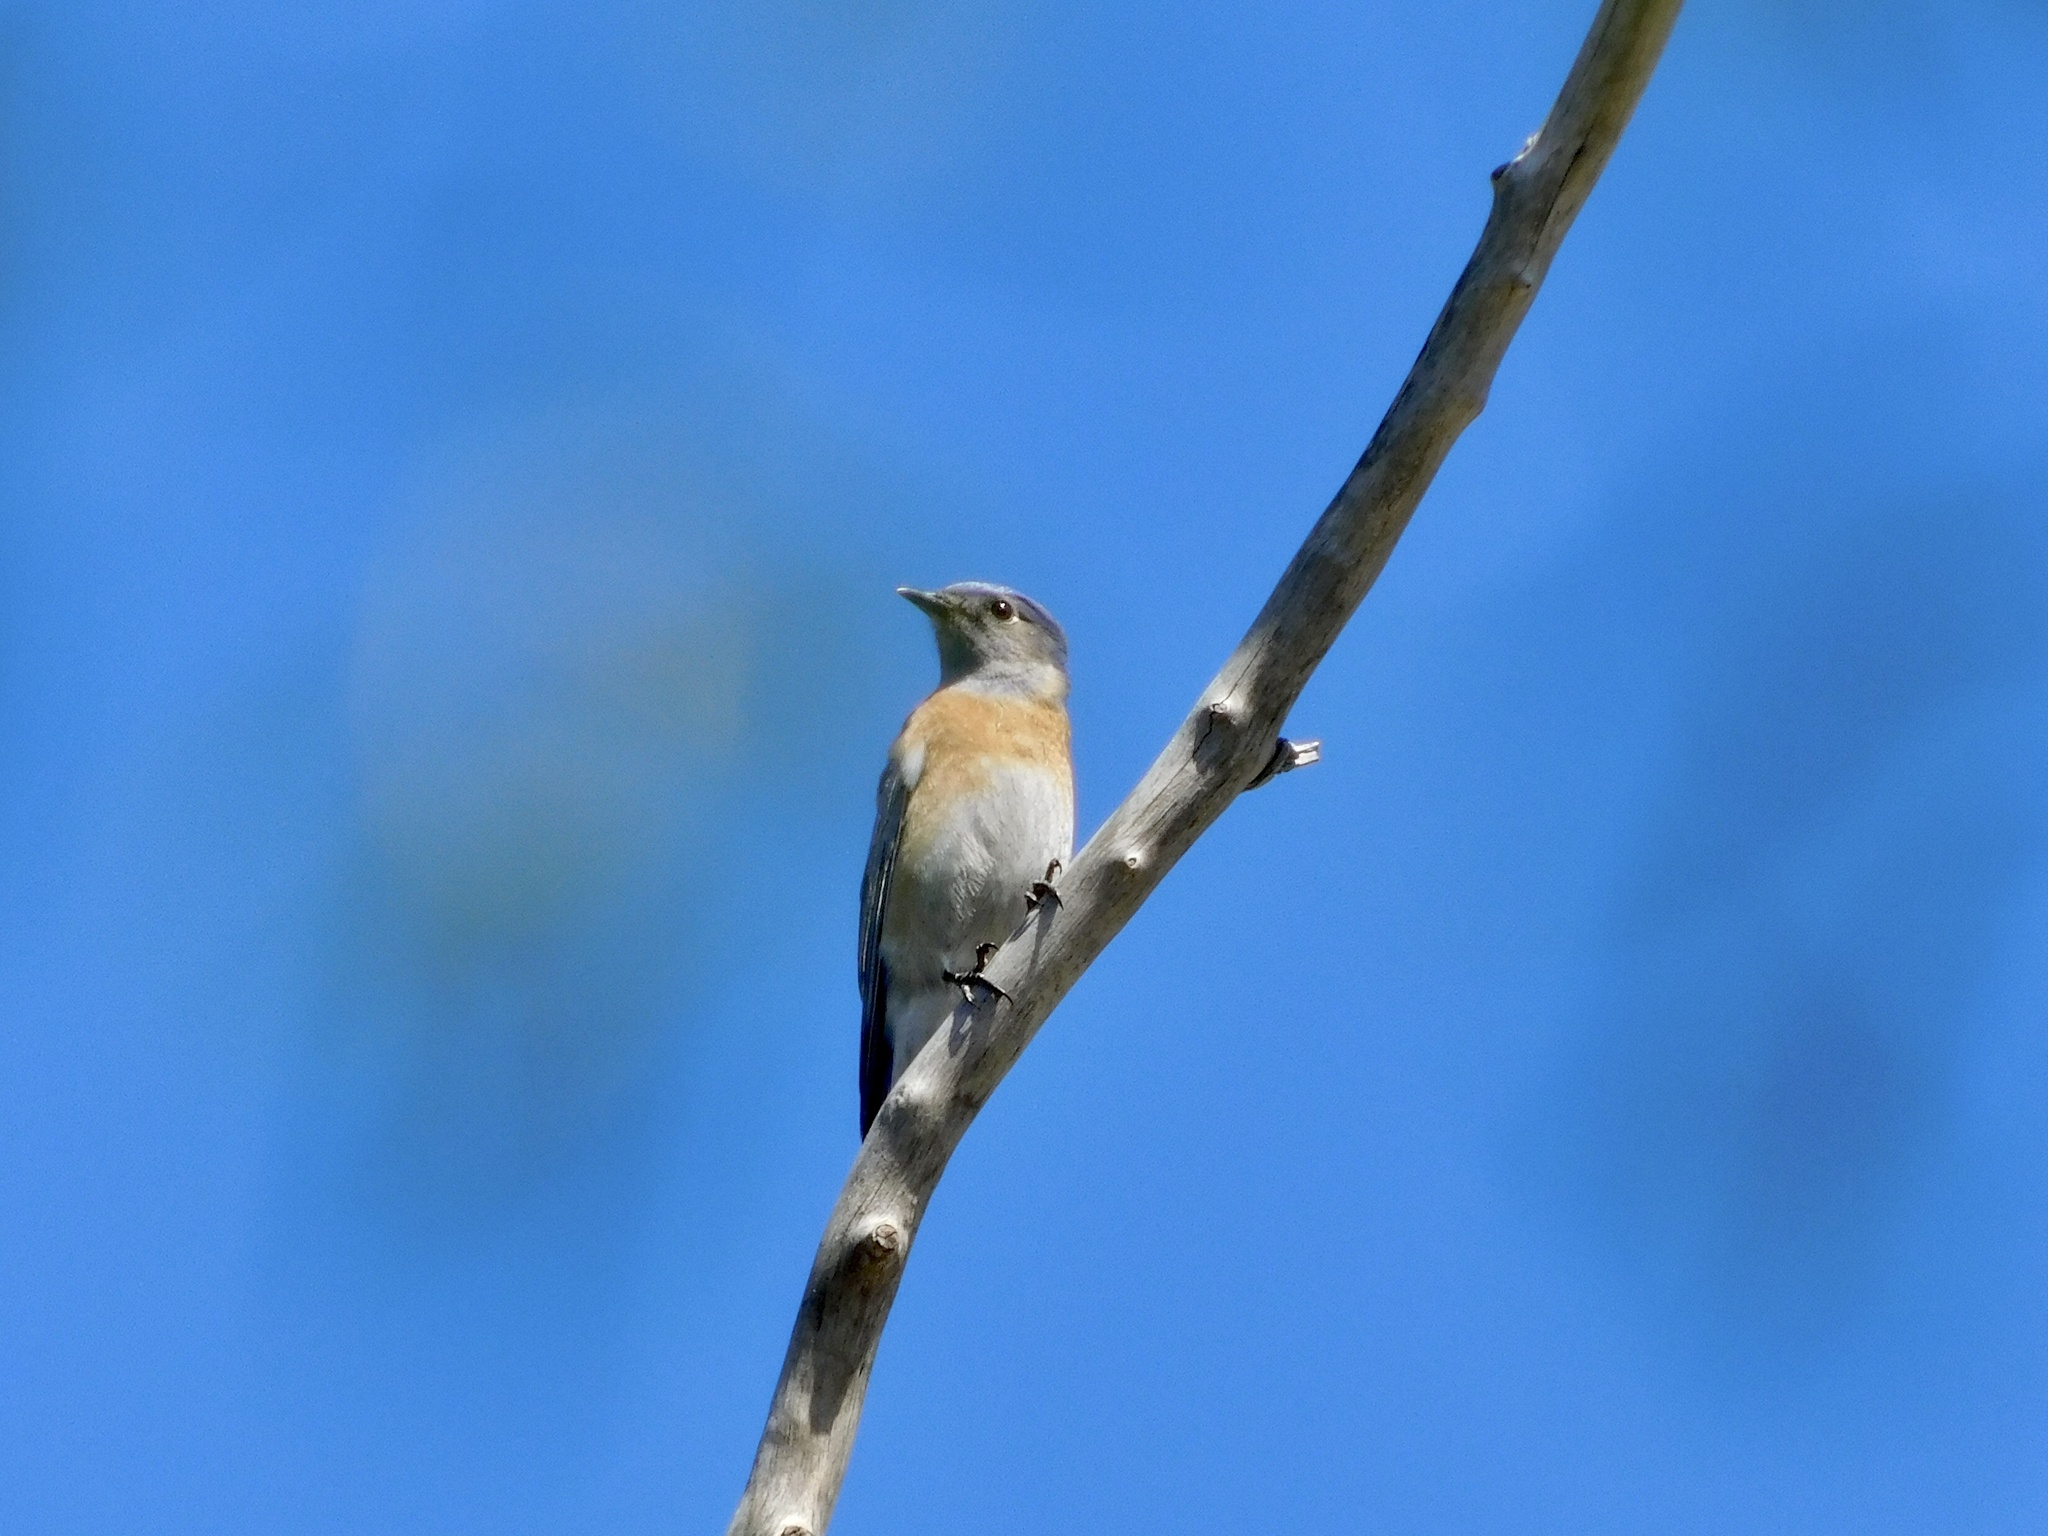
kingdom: Animalia
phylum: Chordata
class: Aves
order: Passeriformes
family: Turdidae
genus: Sialia
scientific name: Sialia mexicana
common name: Western bluebird
